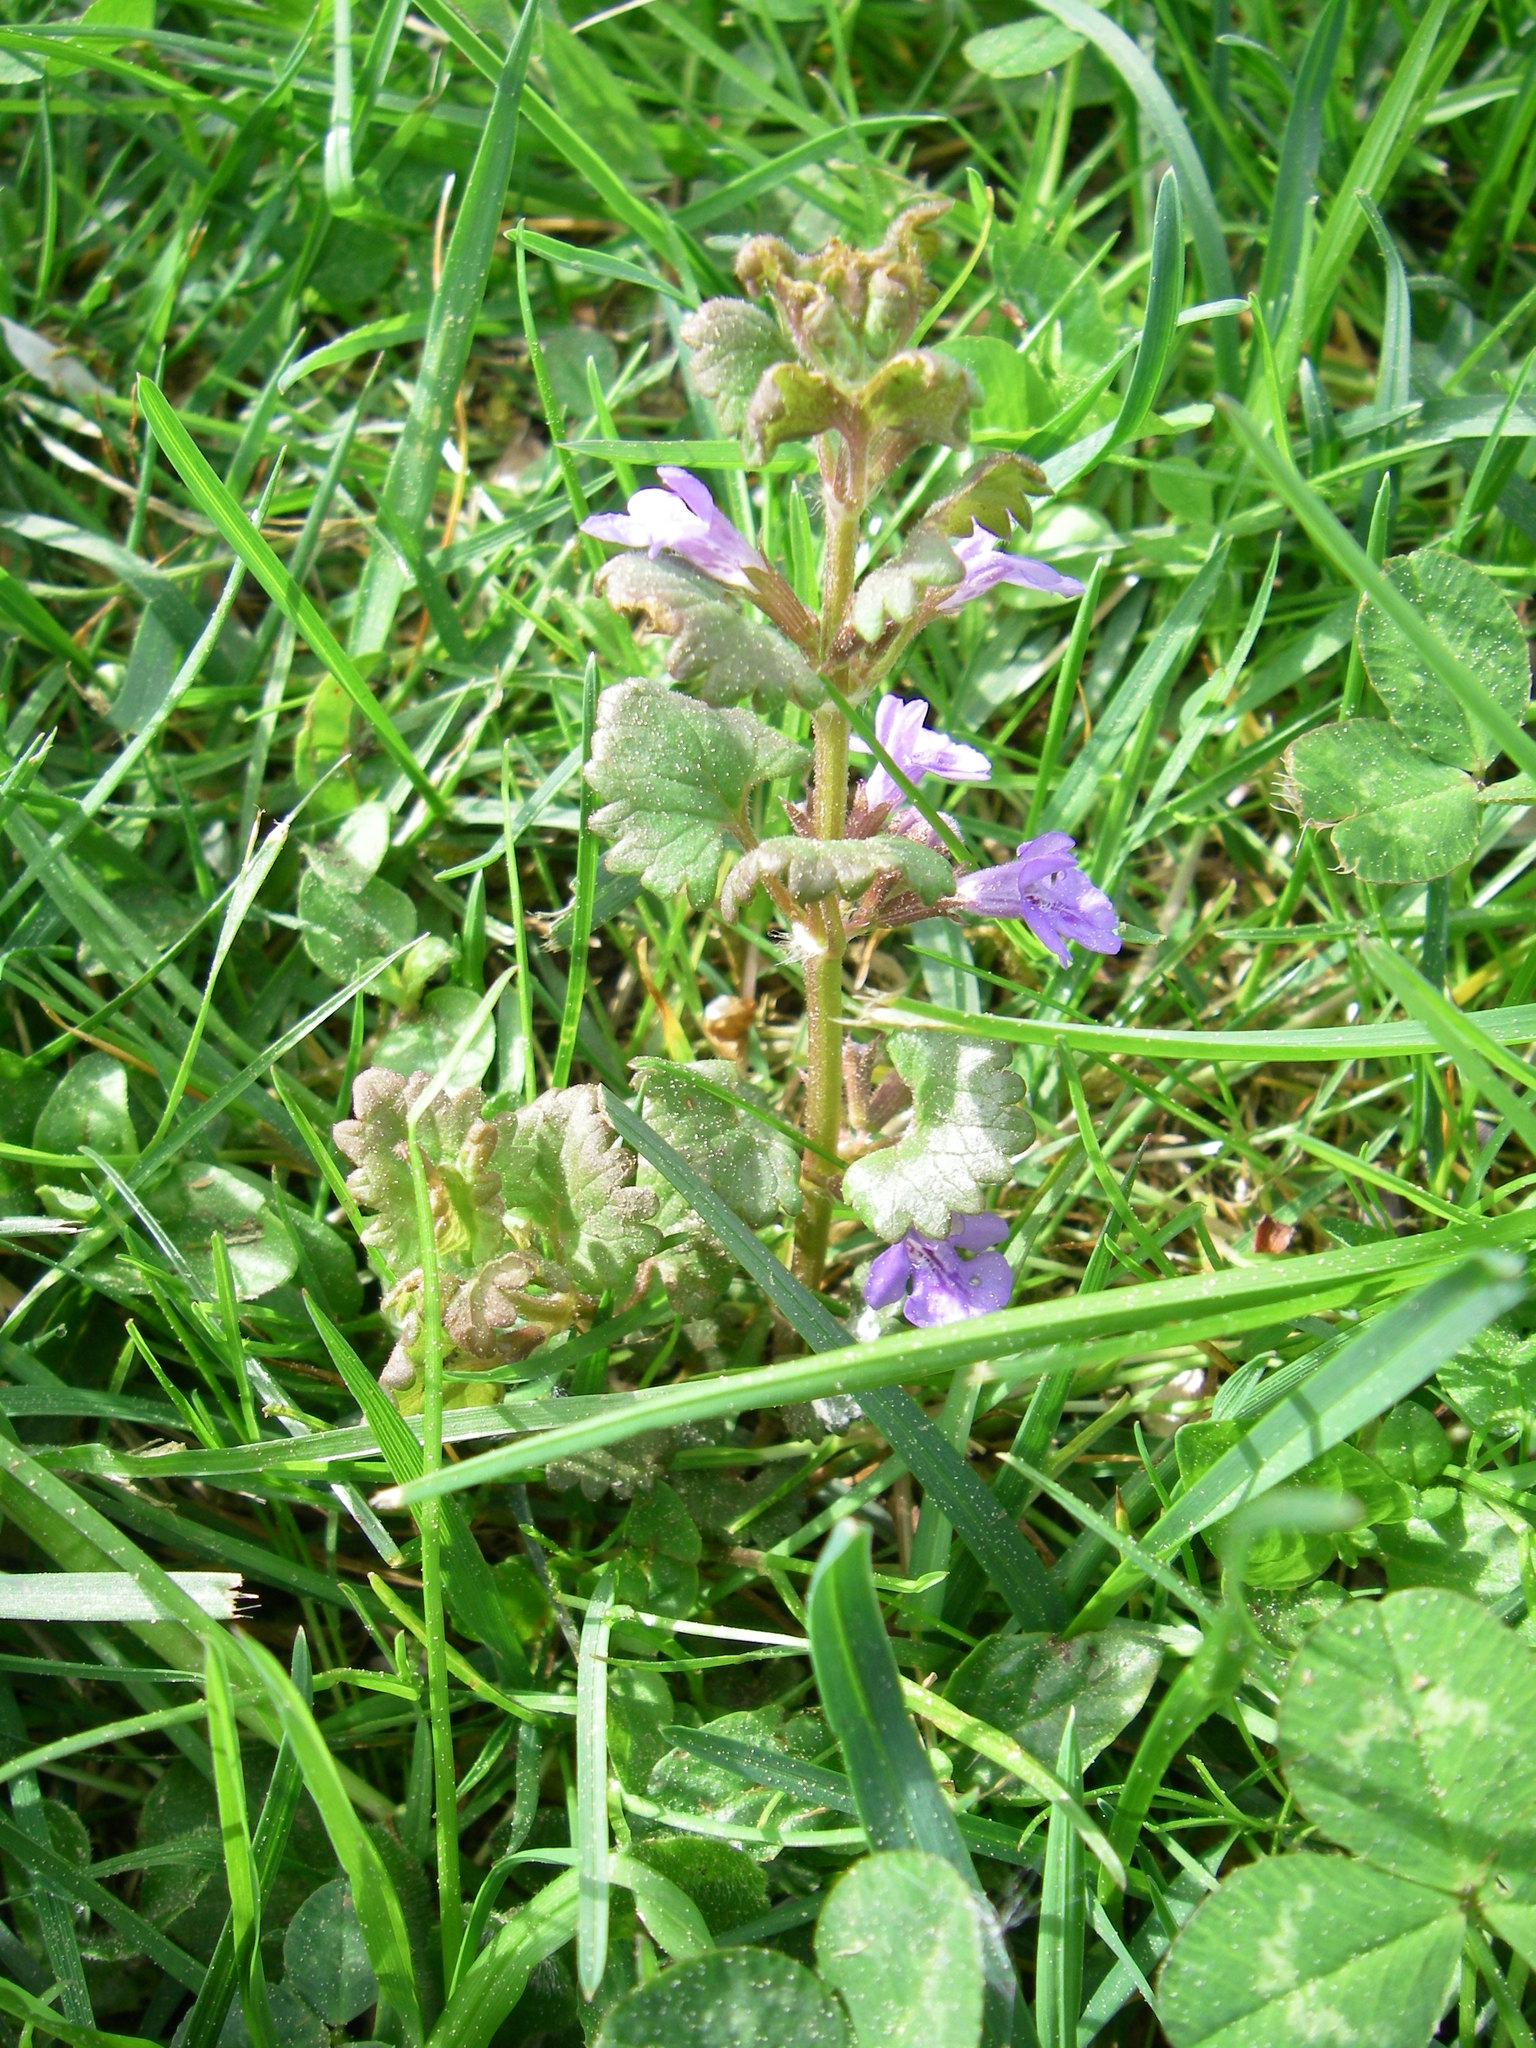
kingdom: Plantae
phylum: Tracheophyta
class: Magnoliopsida
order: Lamiales
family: Lamiaceae
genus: Glechoma
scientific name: Glechoma hederacea
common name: Ground ivy
